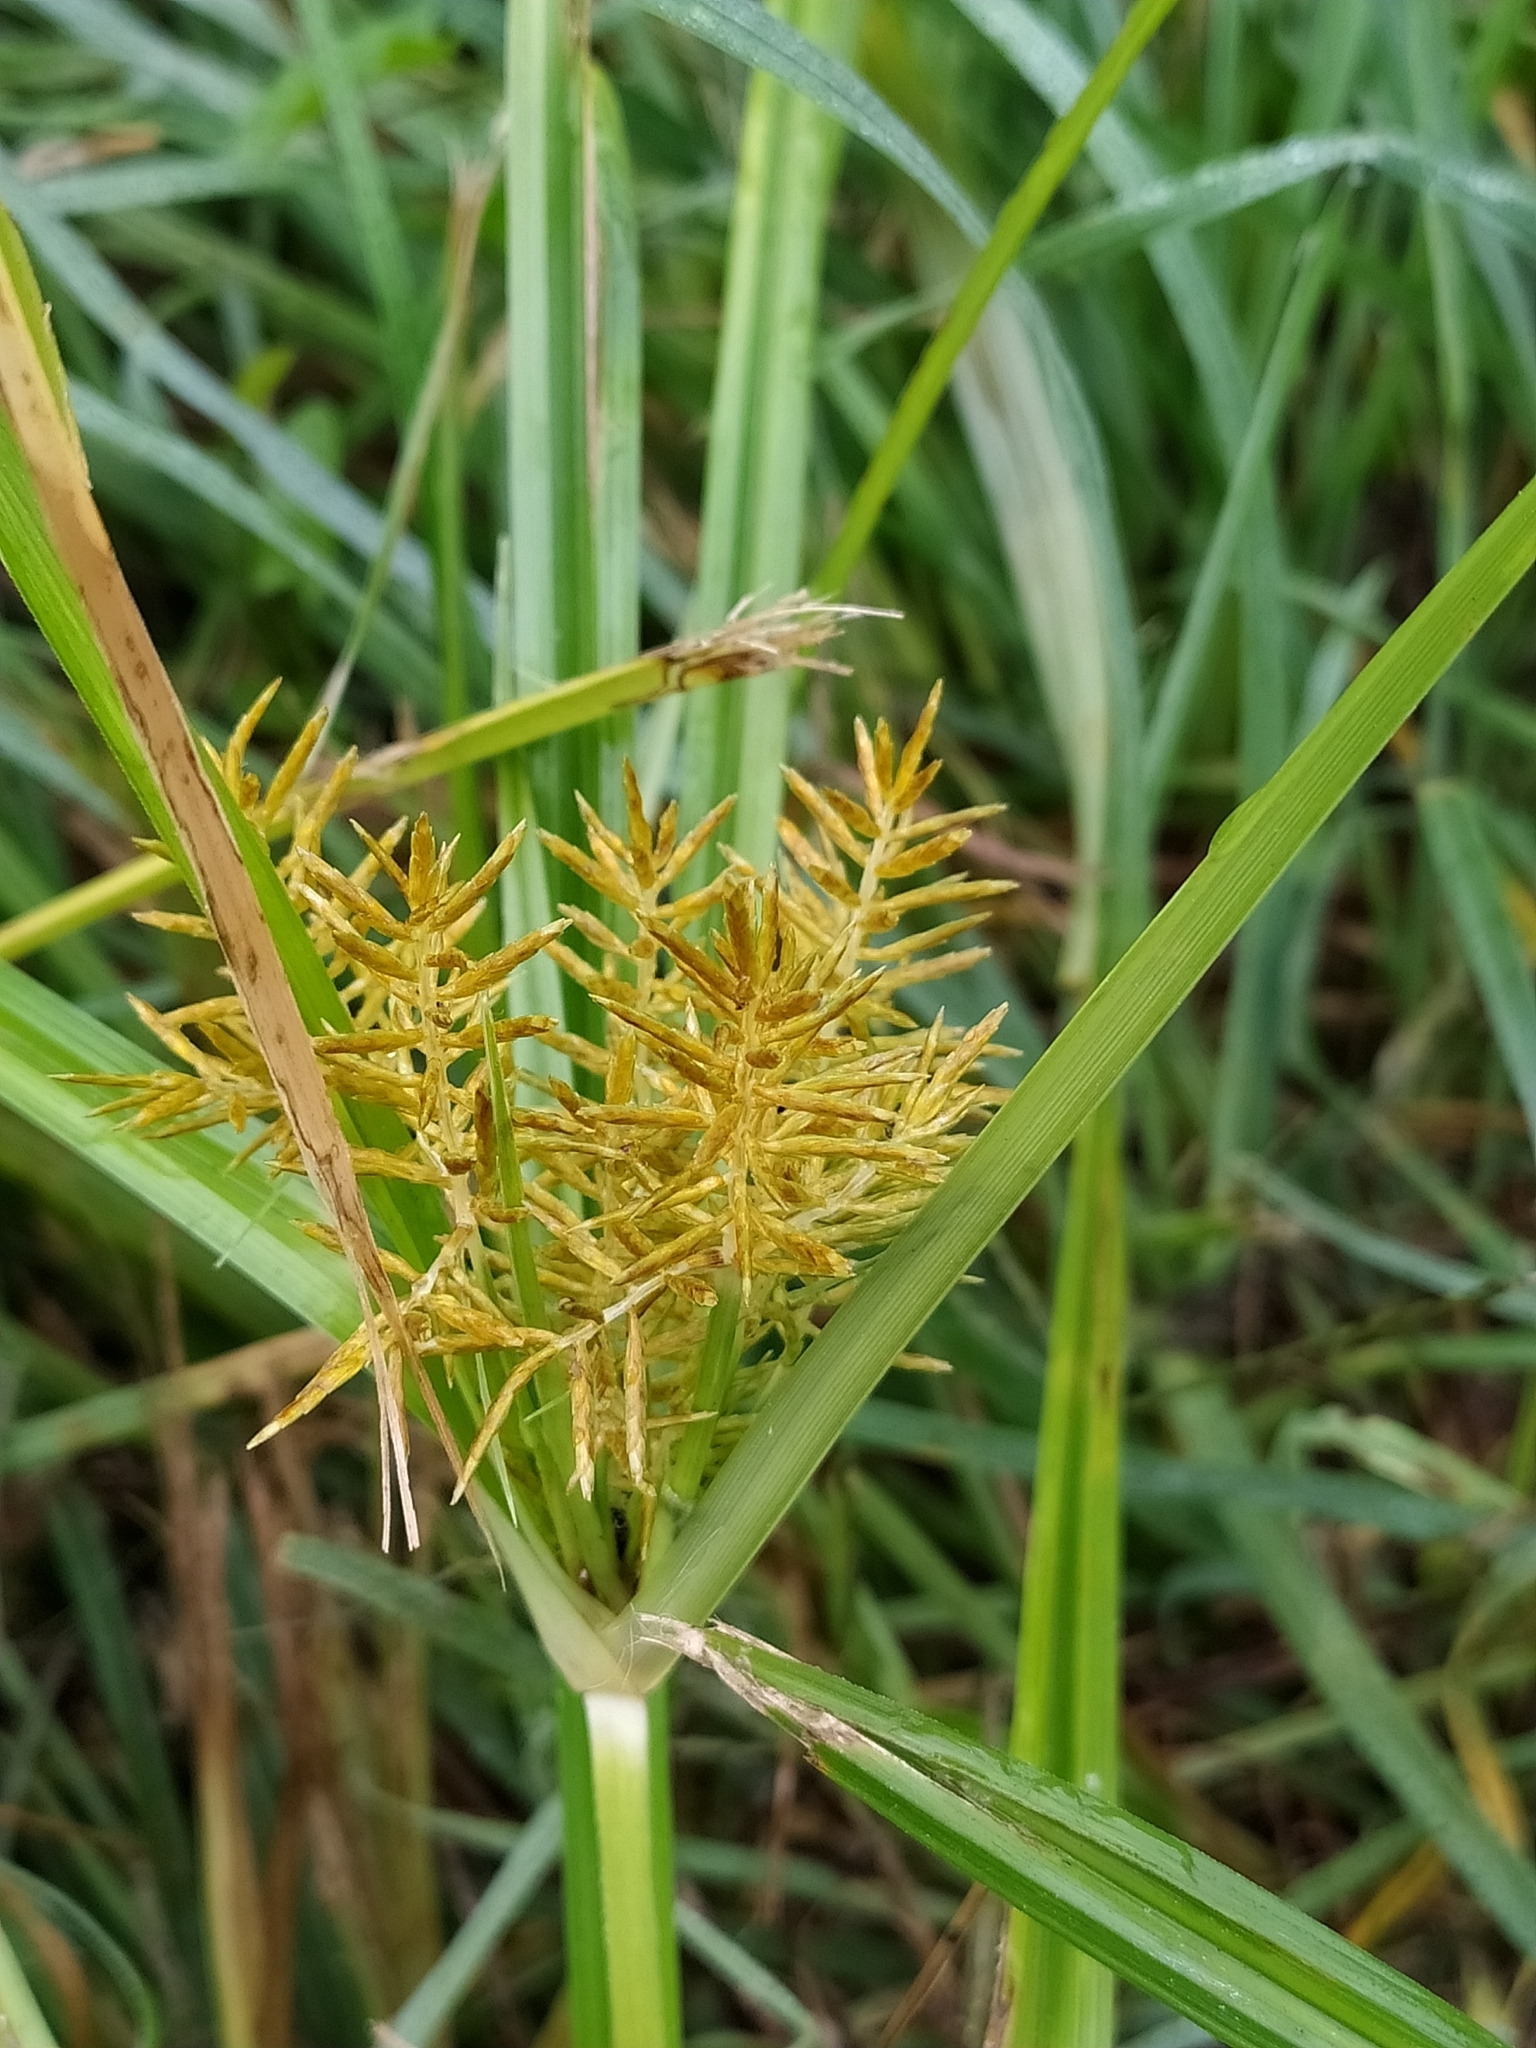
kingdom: Plantae
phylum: Tracheophyta
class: Liliopsida
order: Poales
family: Cyperaceae
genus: Cyperus
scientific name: Cyperus esculentus
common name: Yellow nutsedge
